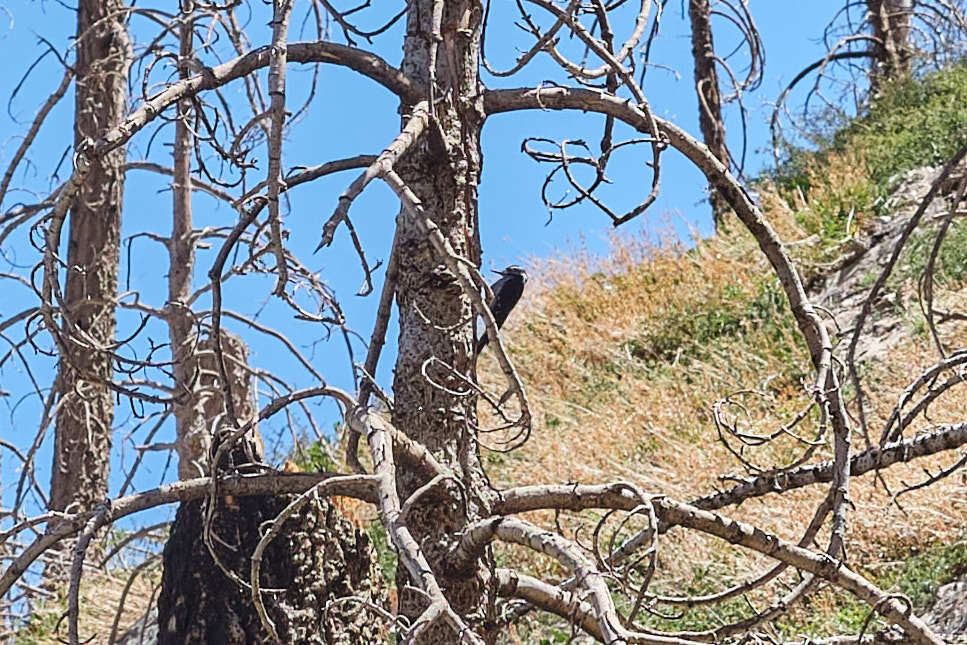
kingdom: Animalia
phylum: Chordata
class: Aves
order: Piciformes
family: Picidae
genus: Leuconotopicus
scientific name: Leuconotopicus villosus
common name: Hairy woodpecker
